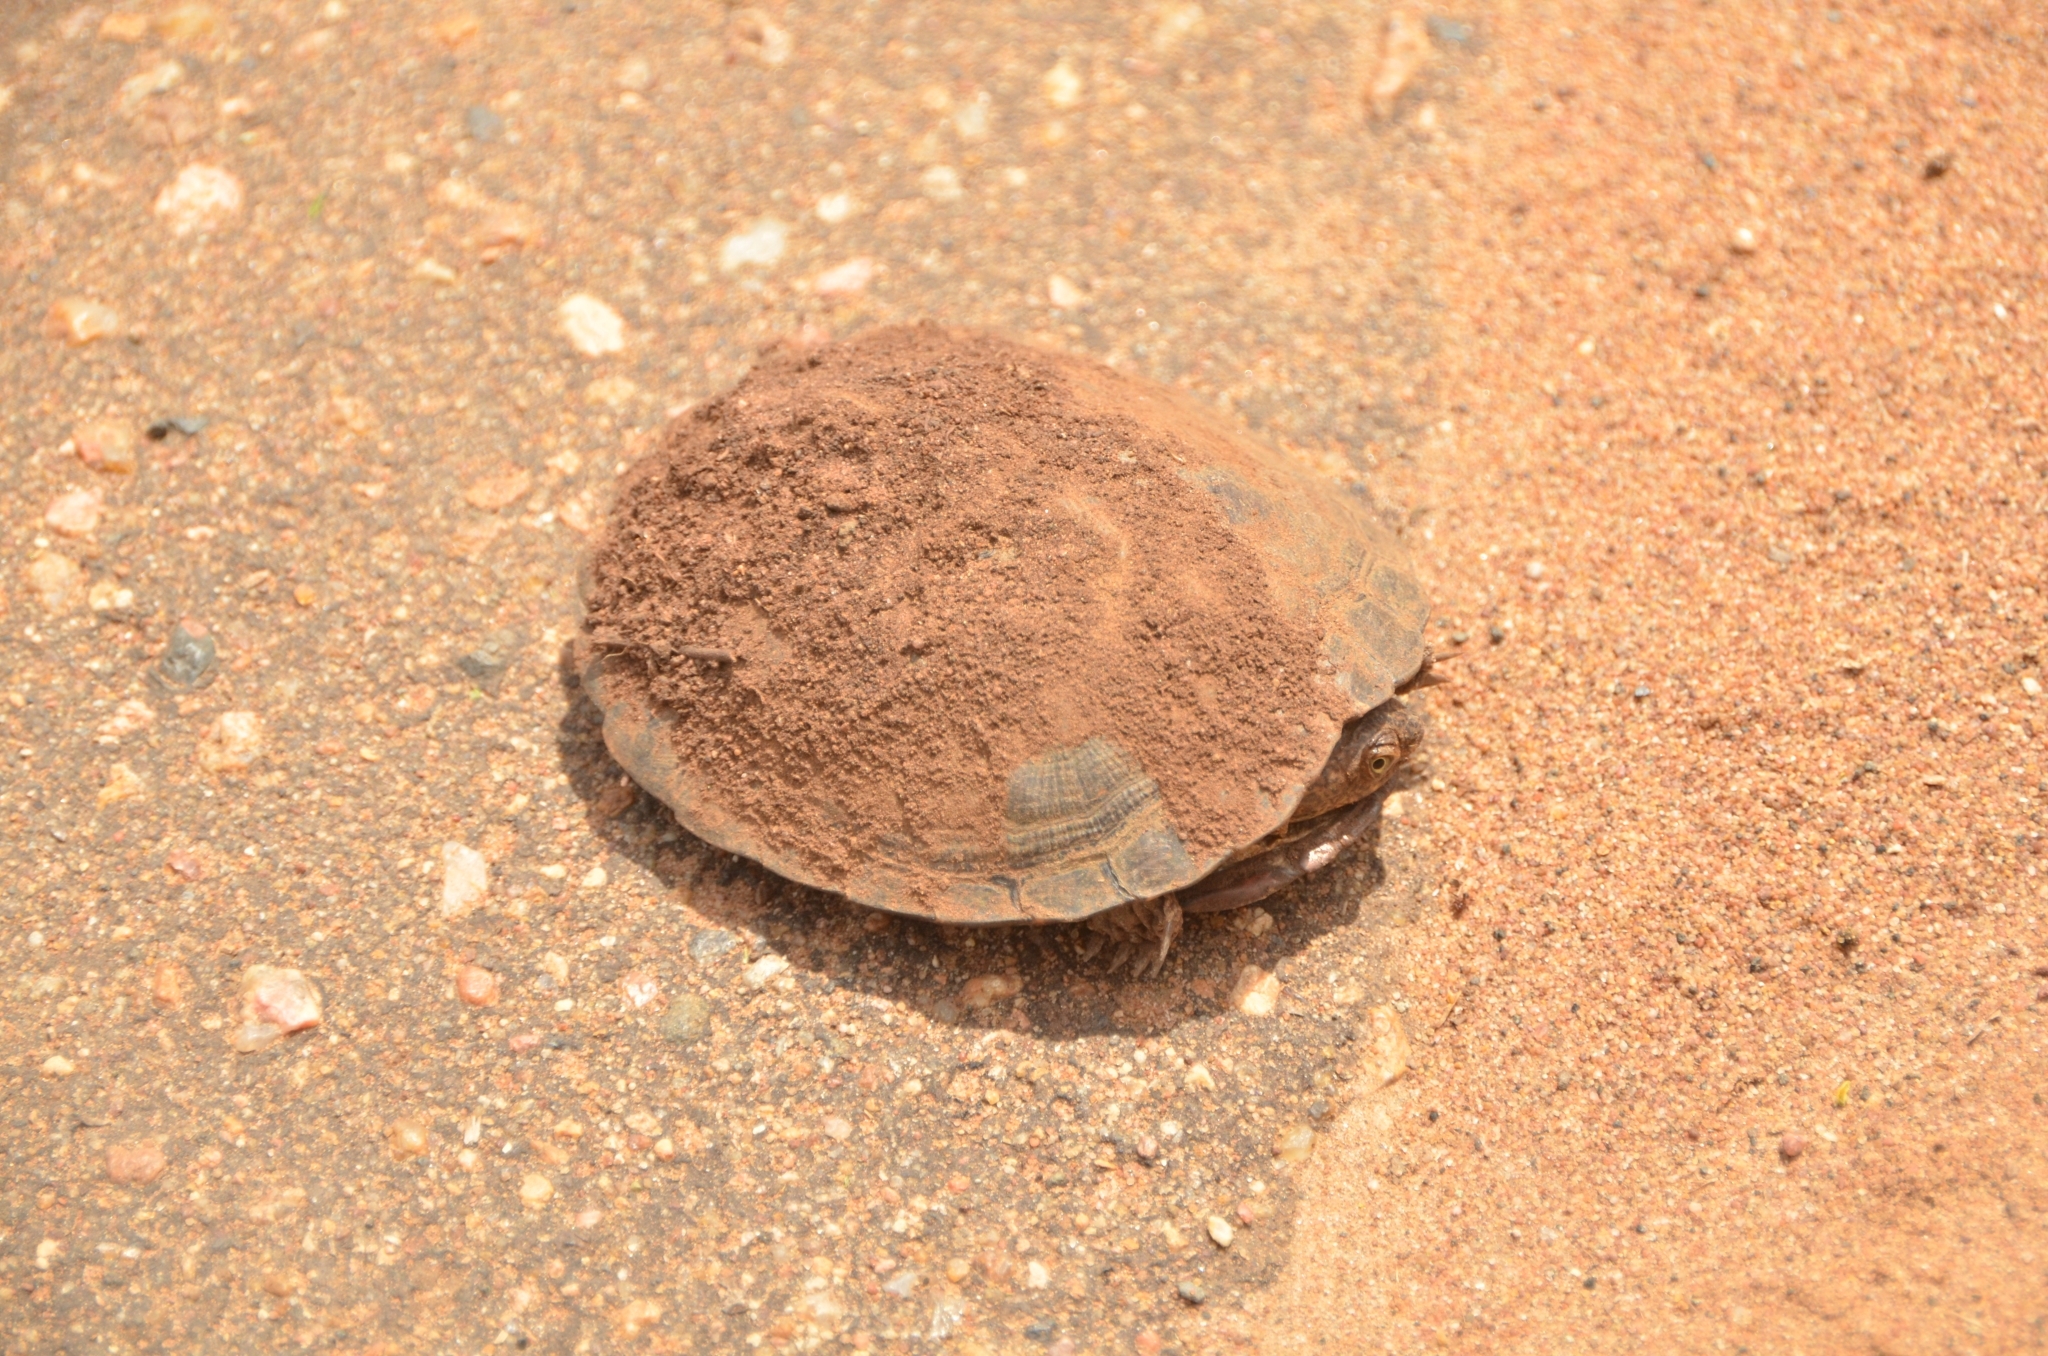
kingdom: Animalia
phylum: Chordata
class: Testudines
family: Pelomedusidae
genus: Pelusios
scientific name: Pelusios sinuatus
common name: Serrated hinged terrapin
